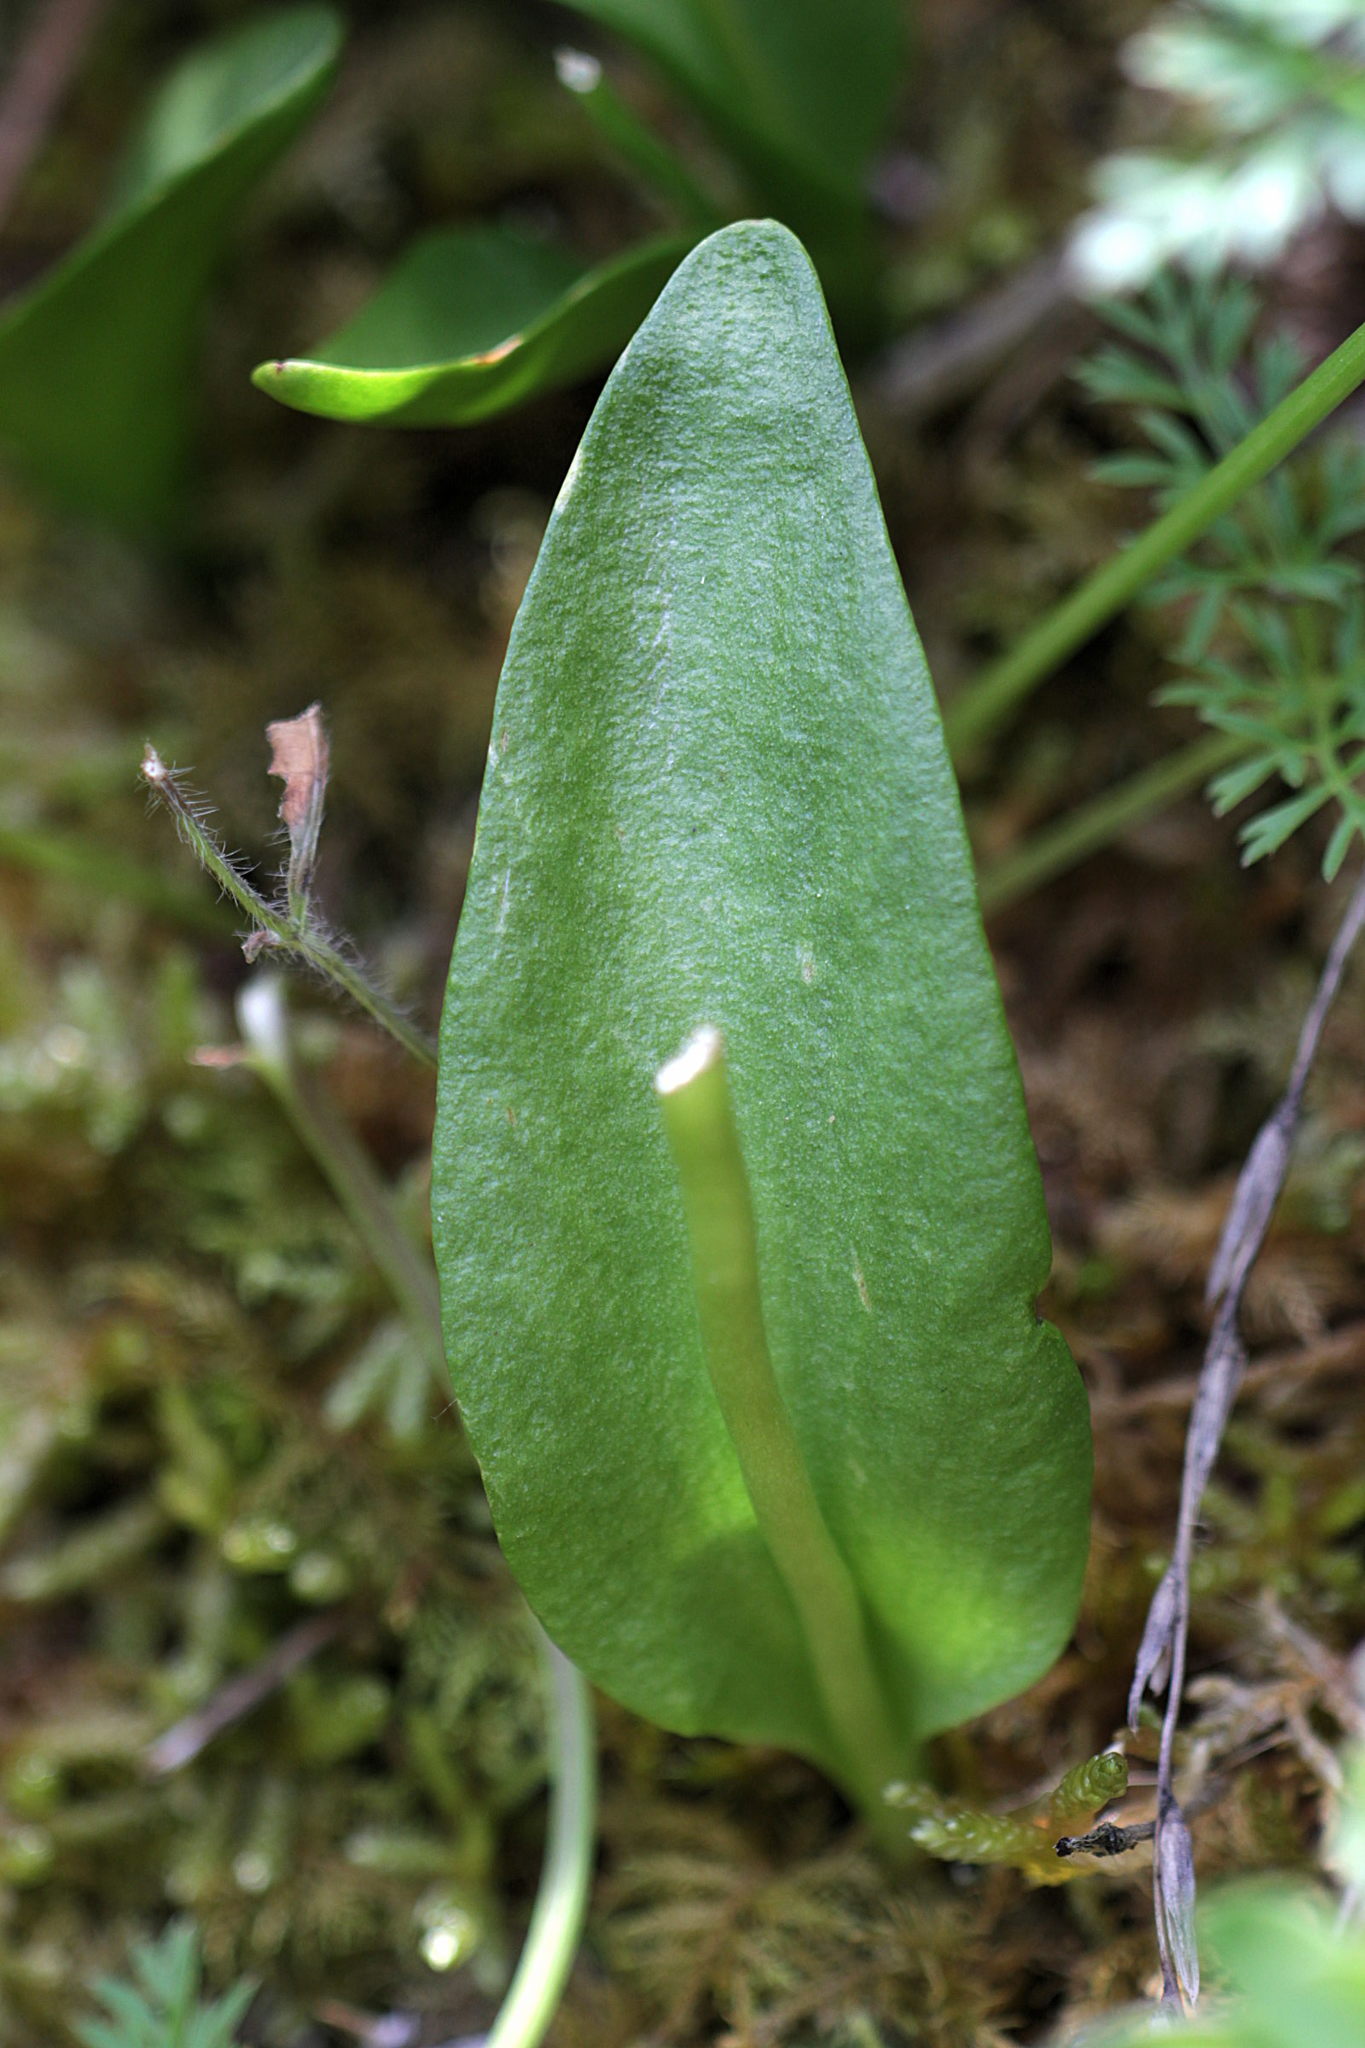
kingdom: Plantae
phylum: Tracheophyta
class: Polypodiopsida
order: Ophioglossales
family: Ophioglossaceae
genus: Ophioglossum
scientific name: Ophioglossum vulgatum
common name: Adder's-tongue
